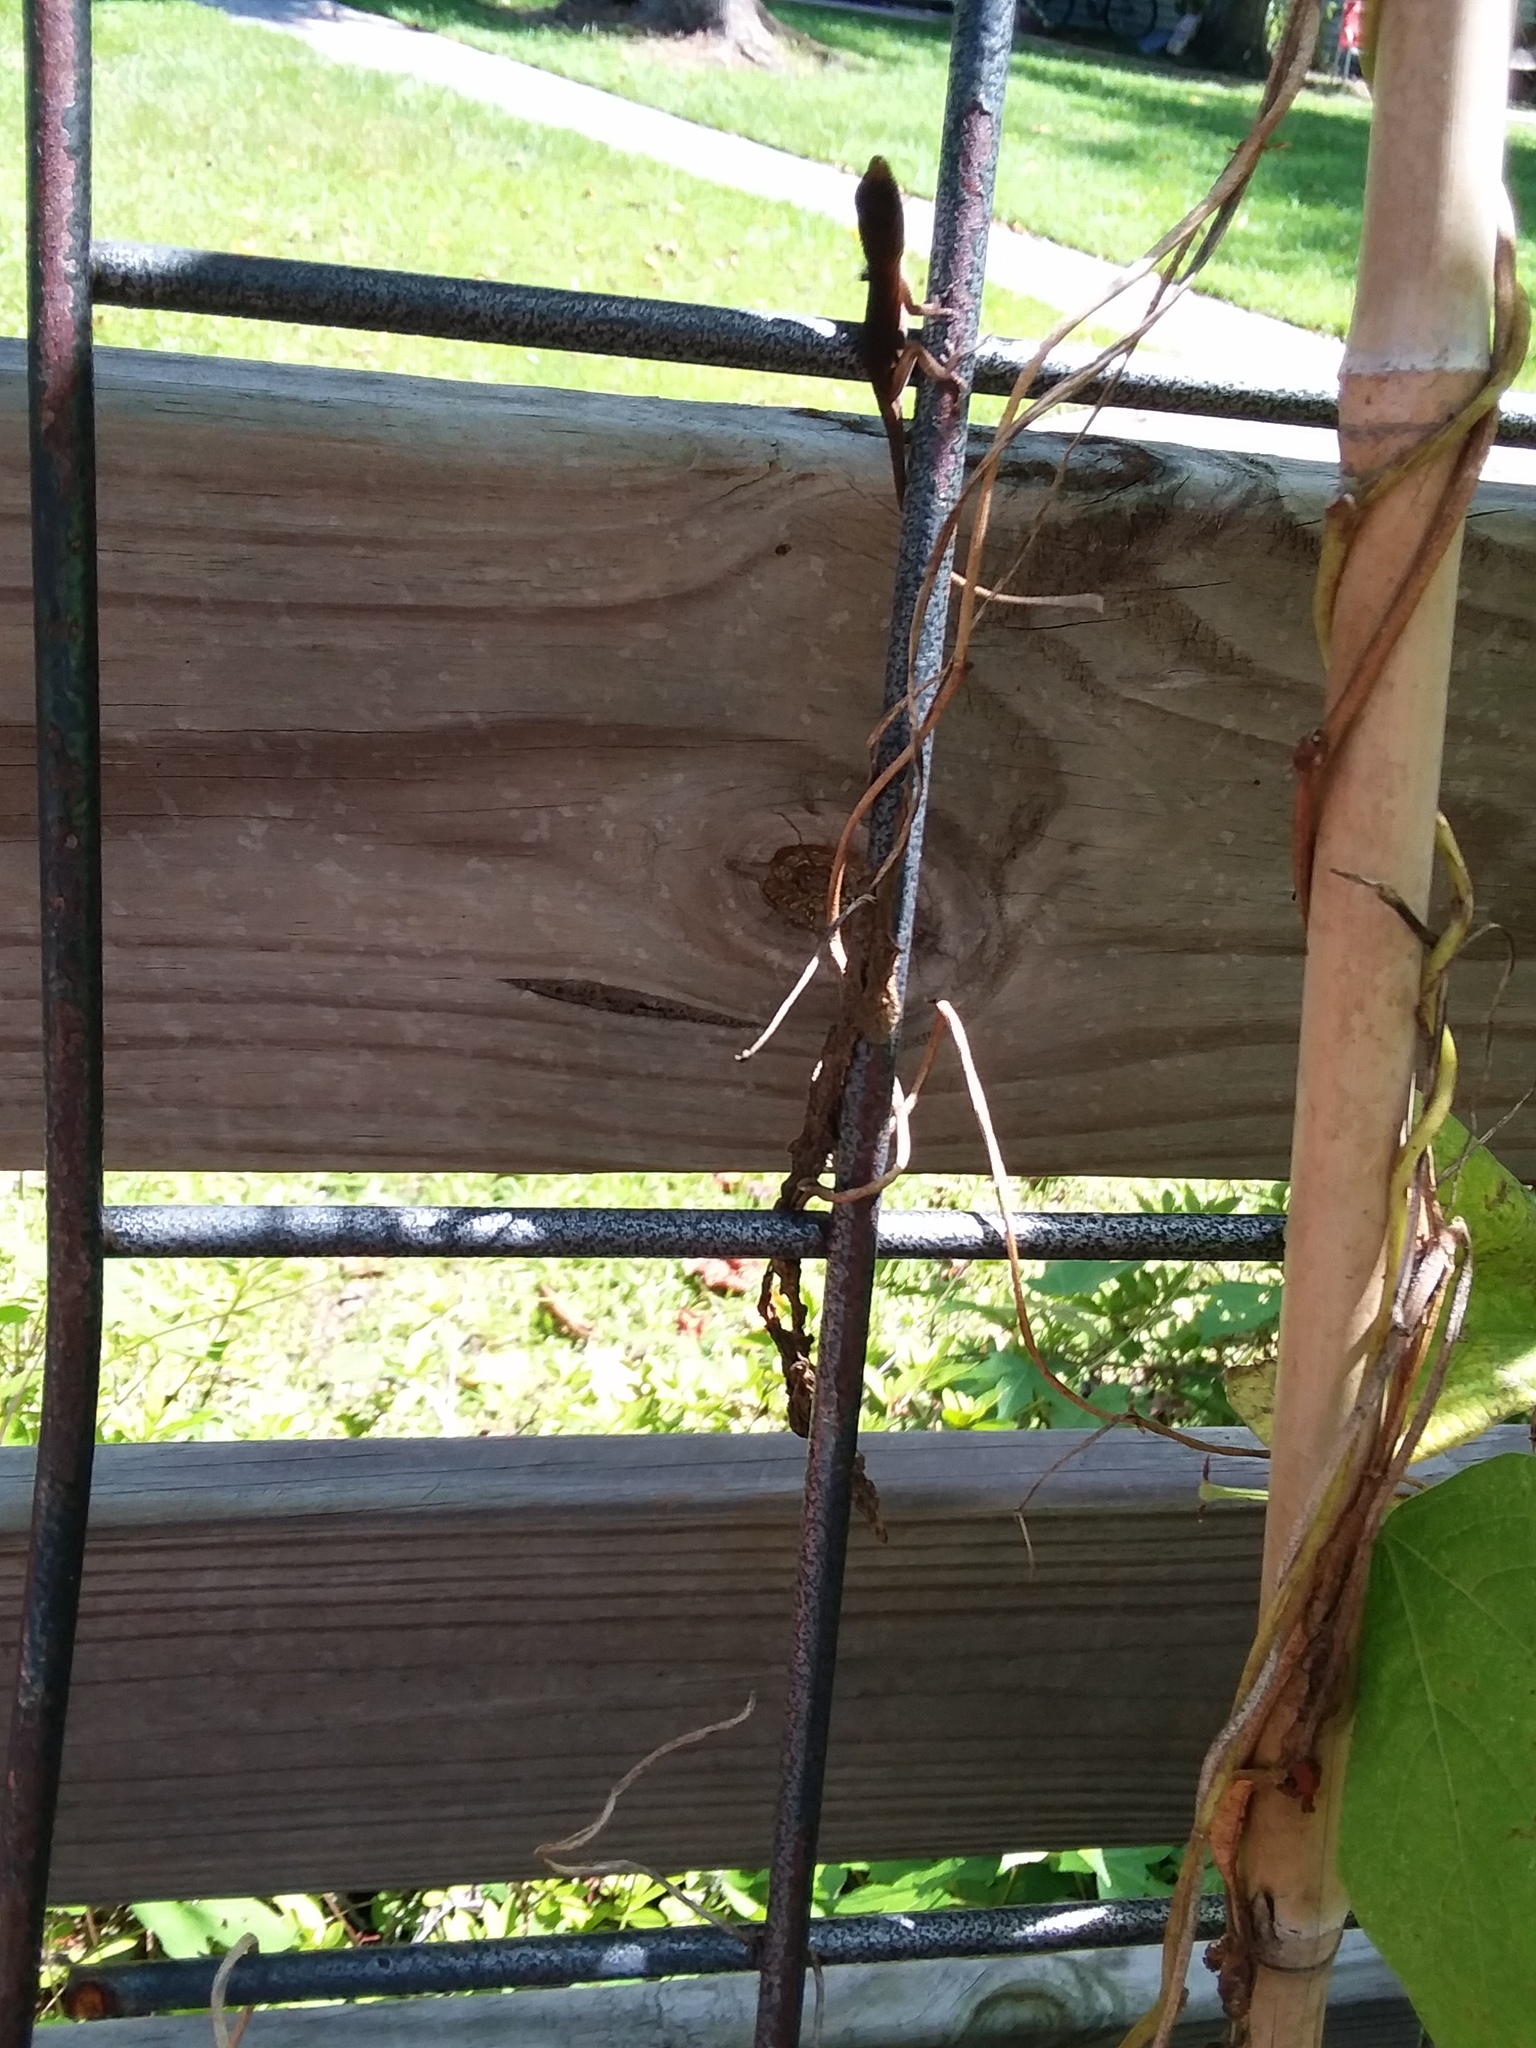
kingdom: Animalia
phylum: Chordata
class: Squamata
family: Dactyloidae
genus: Anolis
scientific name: Anolis carolinensis
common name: Green anole
